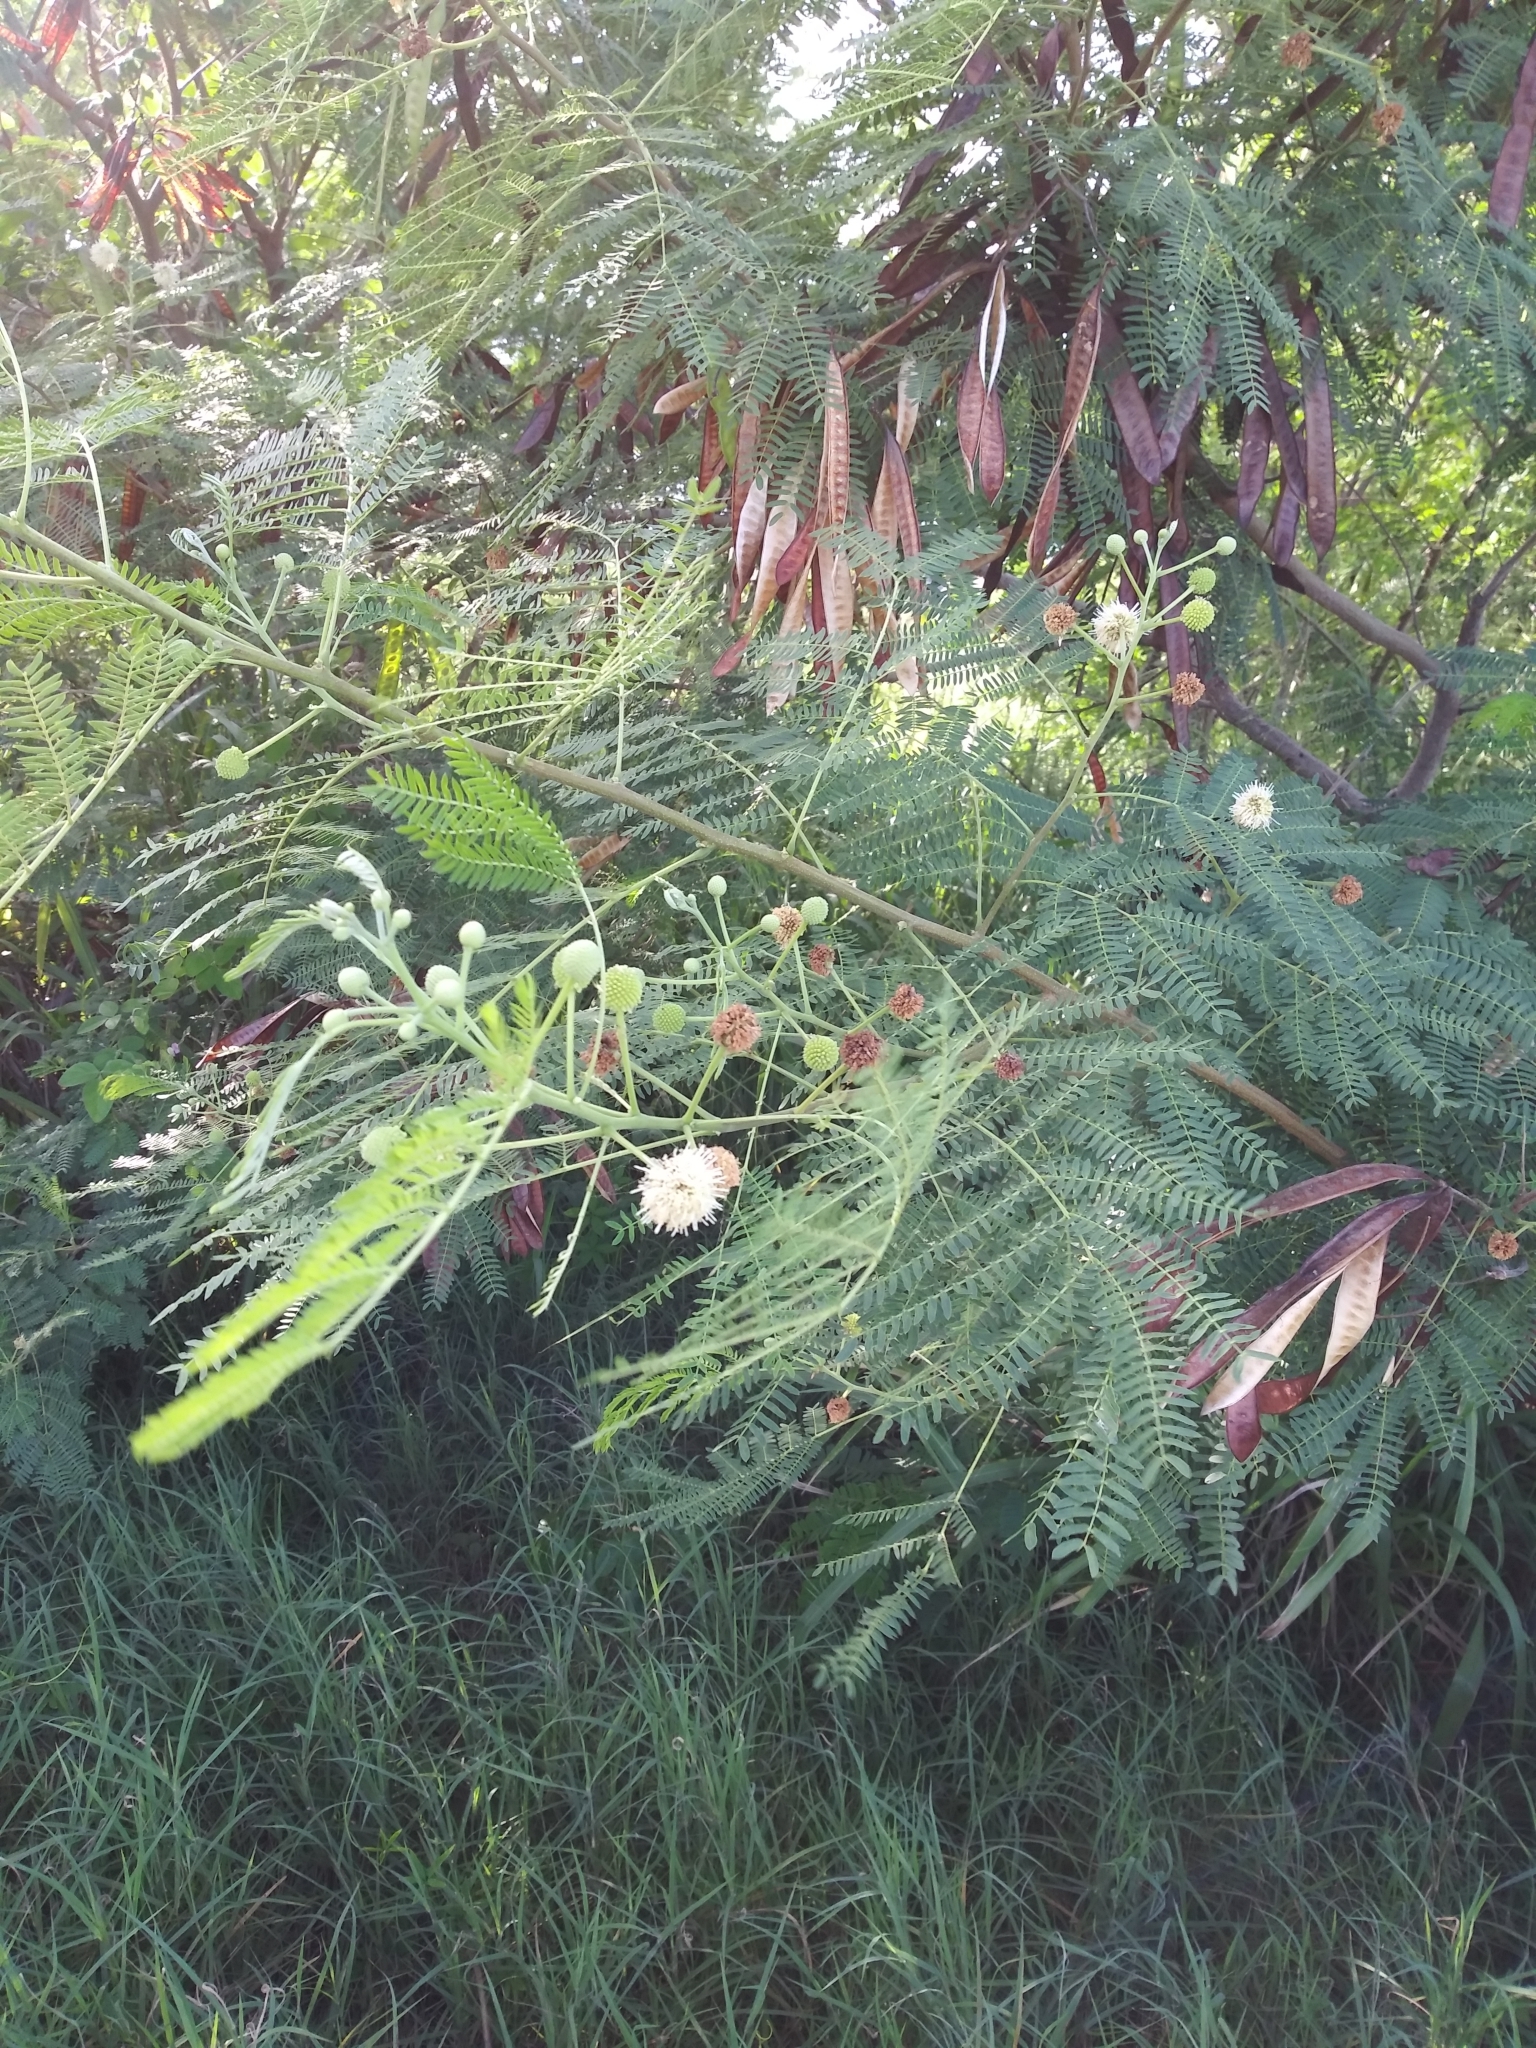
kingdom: Plantae
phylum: Tracheophyta
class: Magnoliopsida
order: Fabales
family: Fabaceae
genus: Leucaena
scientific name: Leucaena leucocephala
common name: White leadtree
